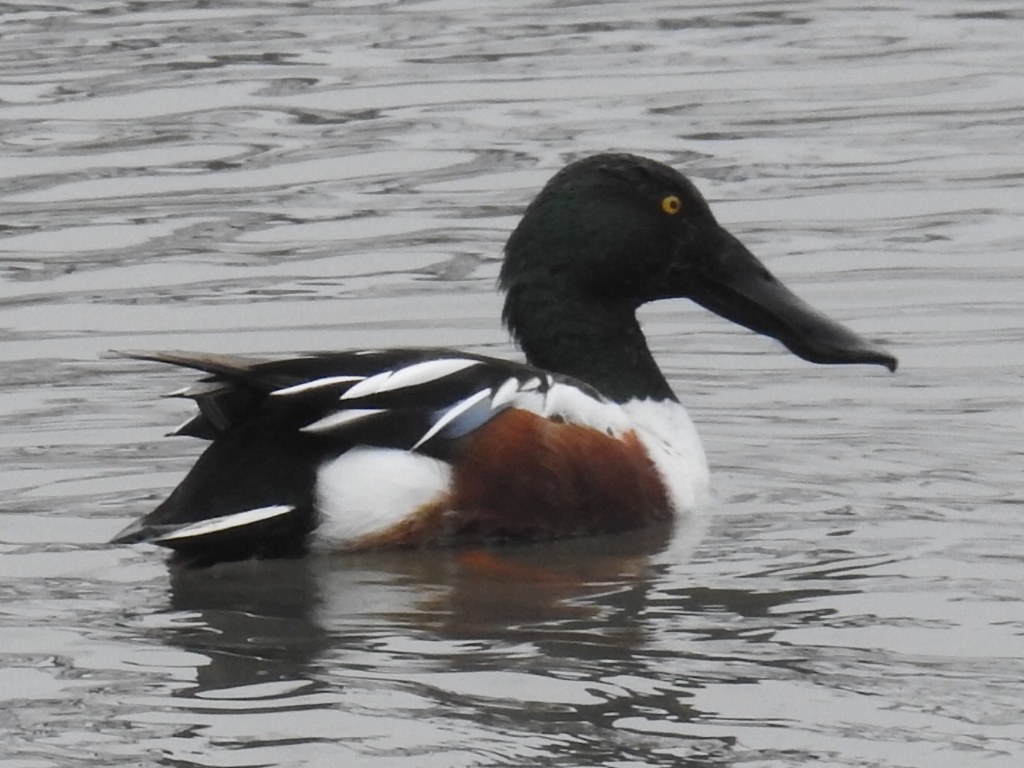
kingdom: Animalia
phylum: Chordata
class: Aves
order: Anseriformes
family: Anatidae
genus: Spatula
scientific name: Spatula clypeata
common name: Northern shoveler
